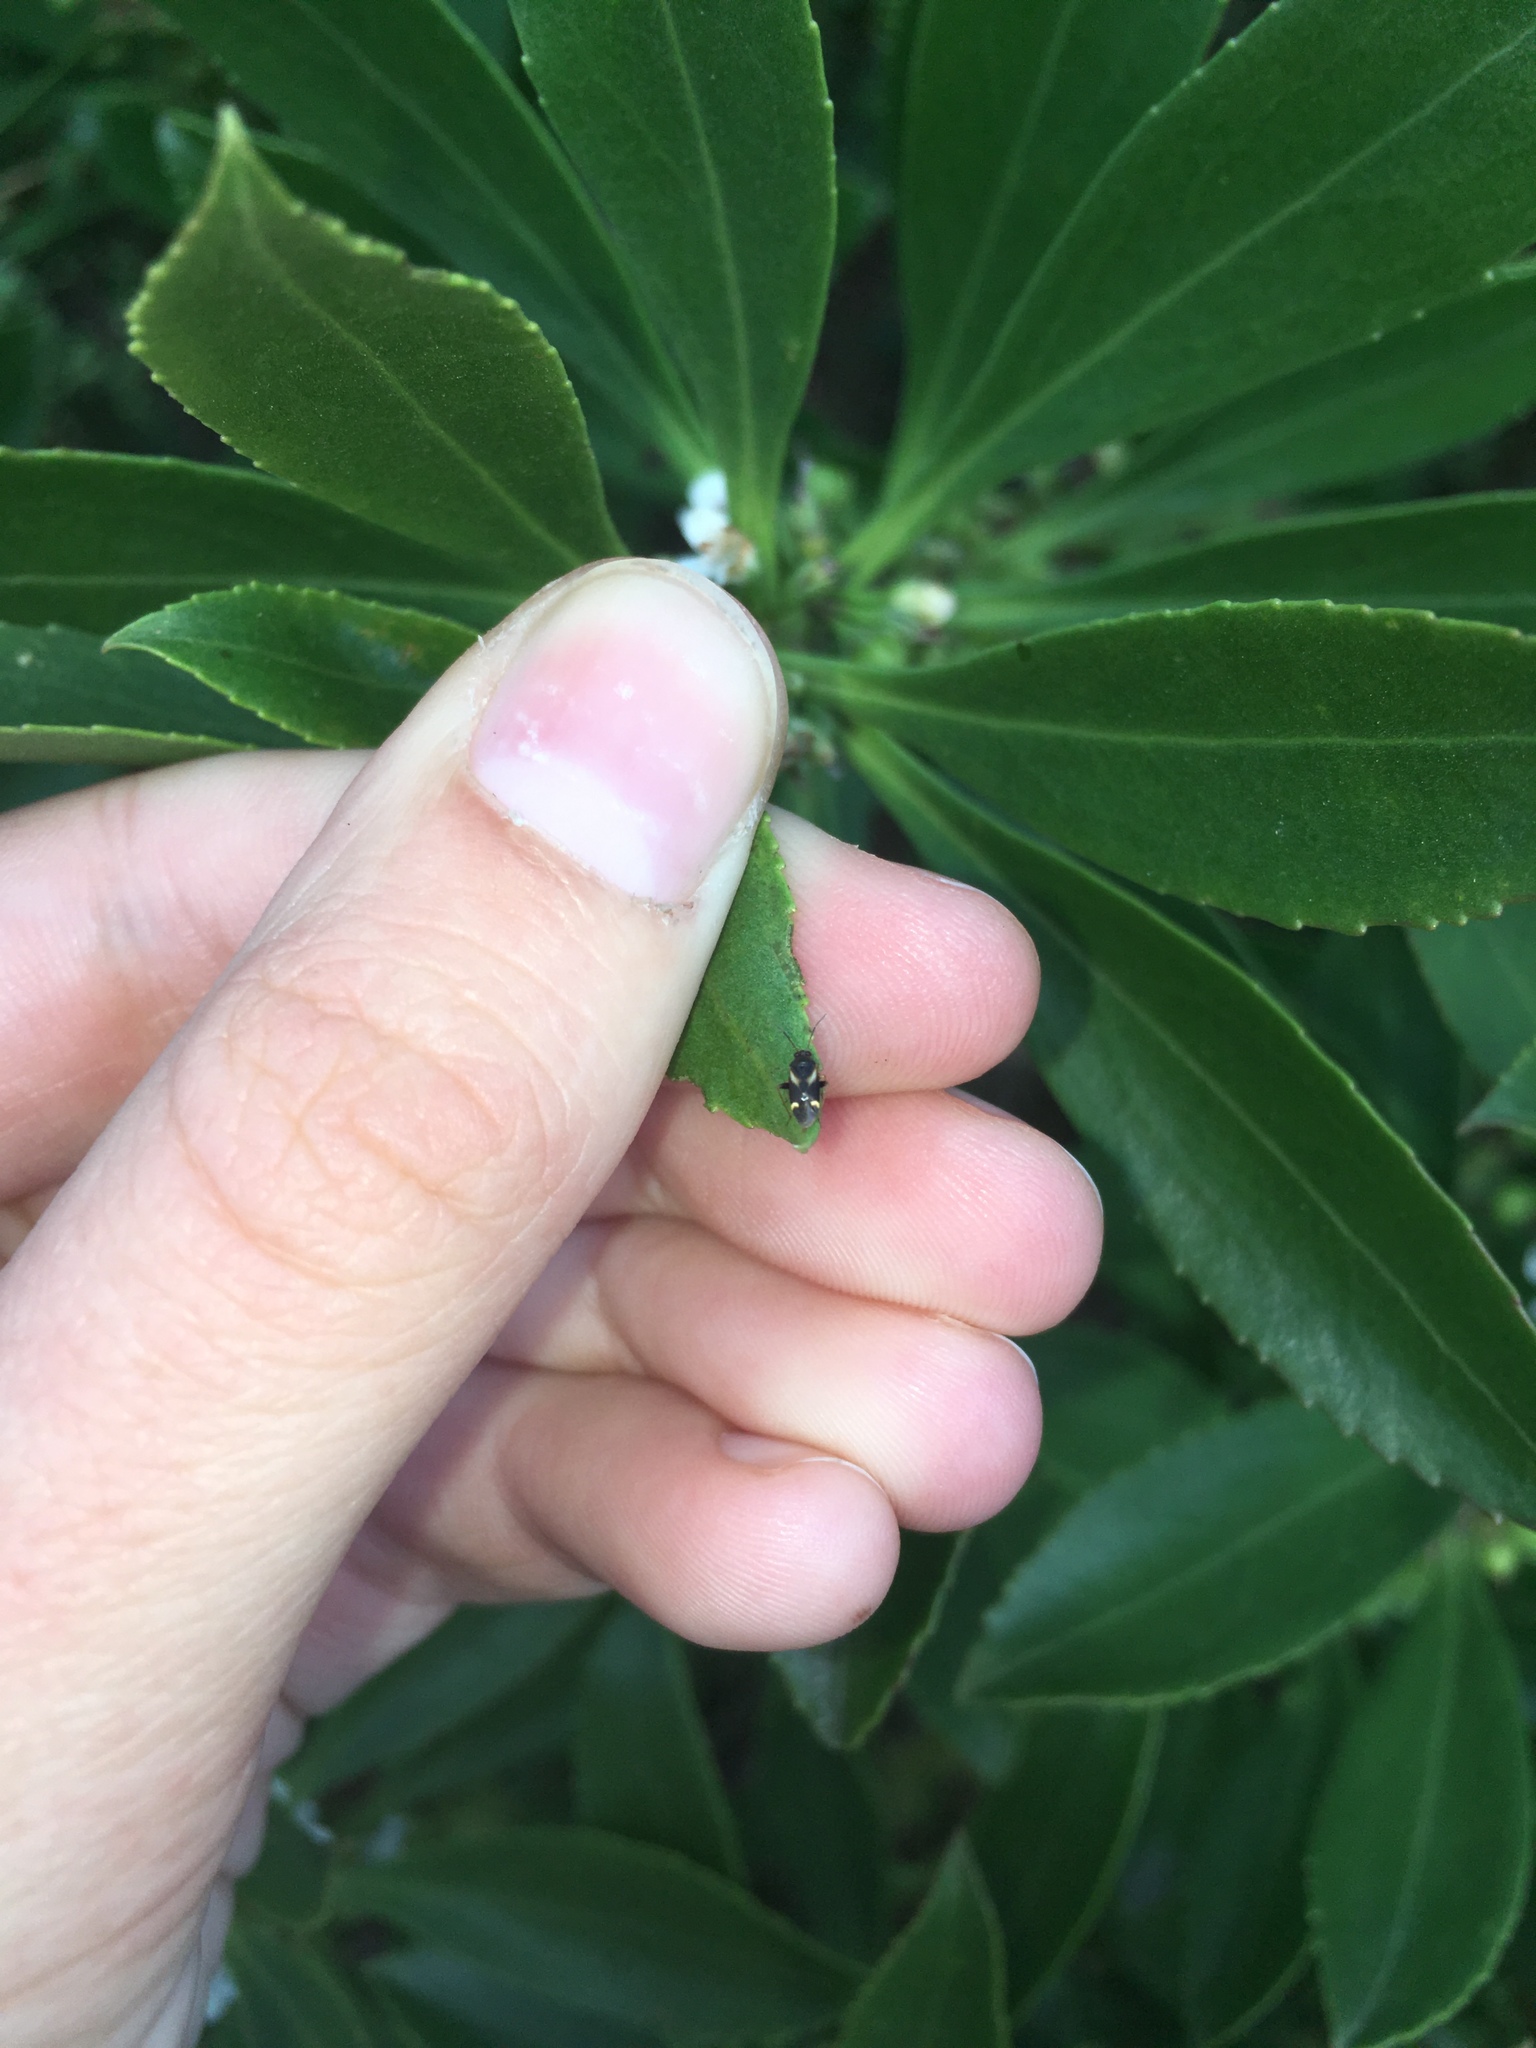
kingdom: Animalia
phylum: Arthropoda
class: Insecta
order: Hemiptera
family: Miridae
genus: Ausejanus
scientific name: Ausejanus albisignatus
